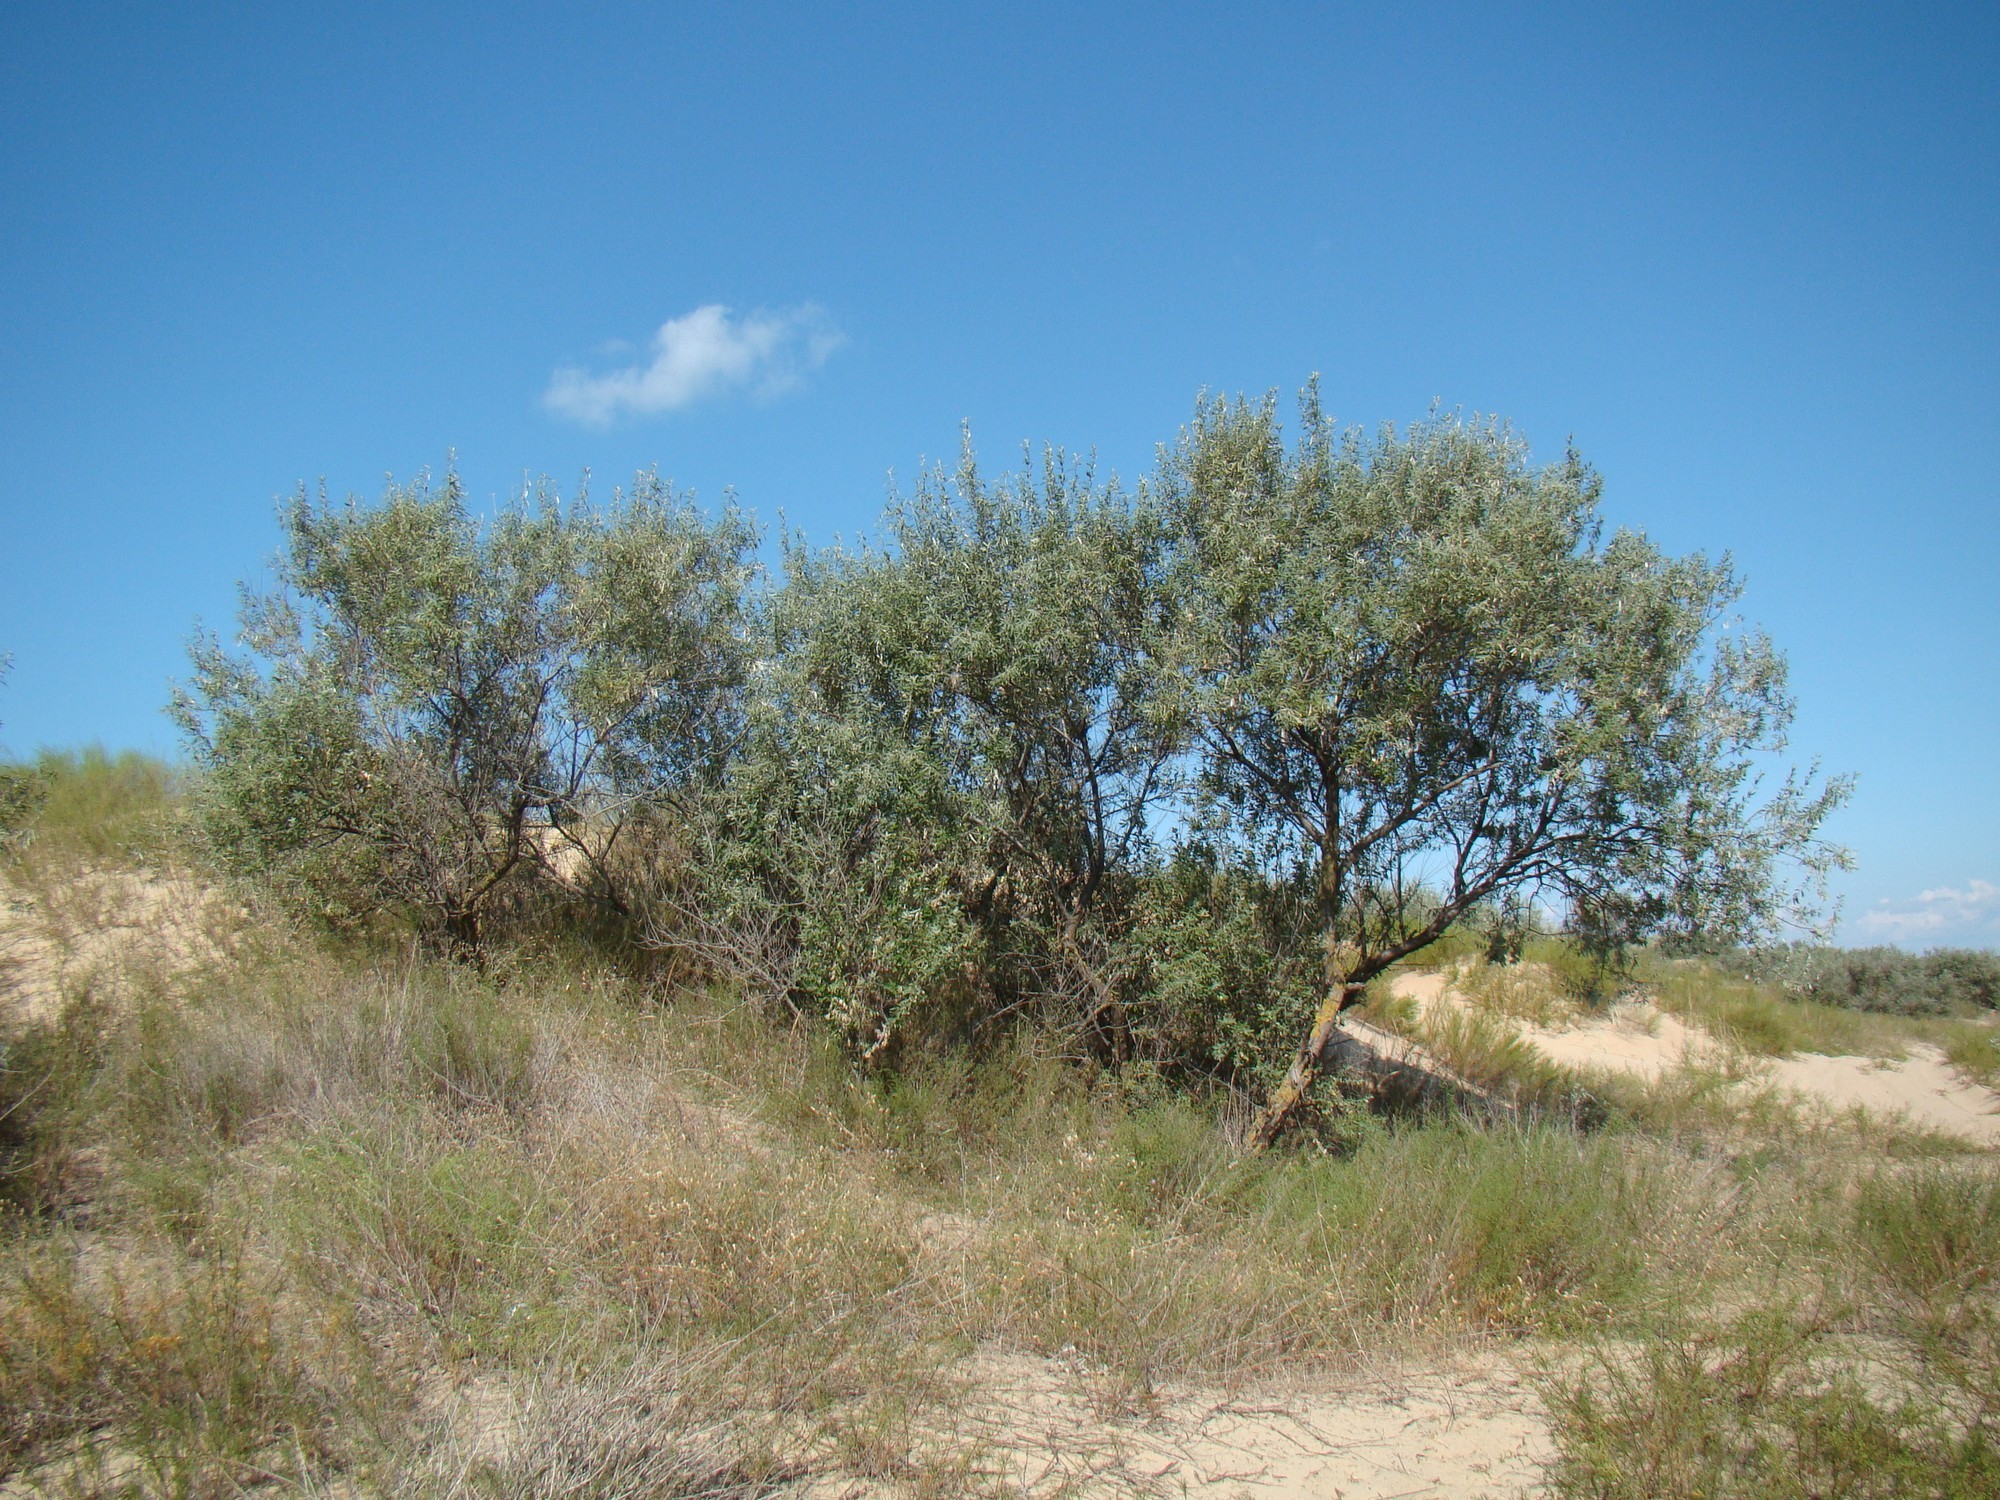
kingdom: Plantae
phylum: Tracheophyta
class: Magnoliopsida
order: Rosales
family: Elaeagnaceae
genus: Elaeagnus
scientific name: Elaeagnus angustifolia
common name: Russian olive
